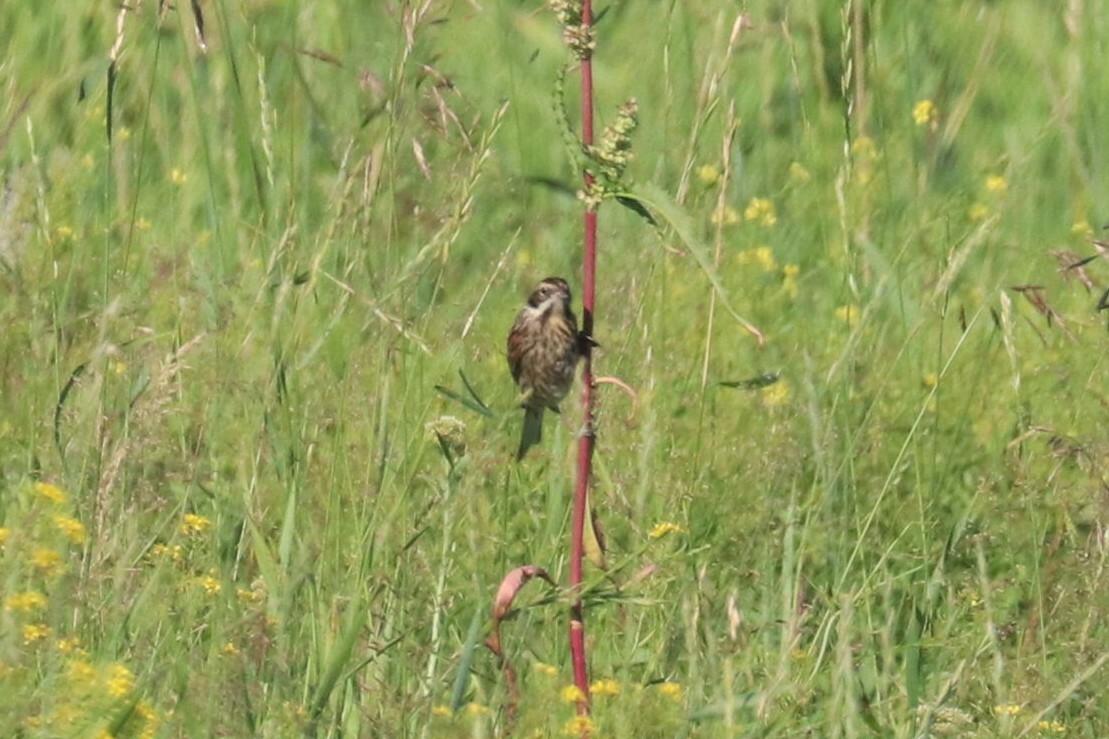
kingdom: Animalia
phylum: Chordata
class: Aves
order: Passeriformes
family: Emberizidae
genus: Emberiza
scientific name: Emberiza schoeniclus
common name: Reed bunting
